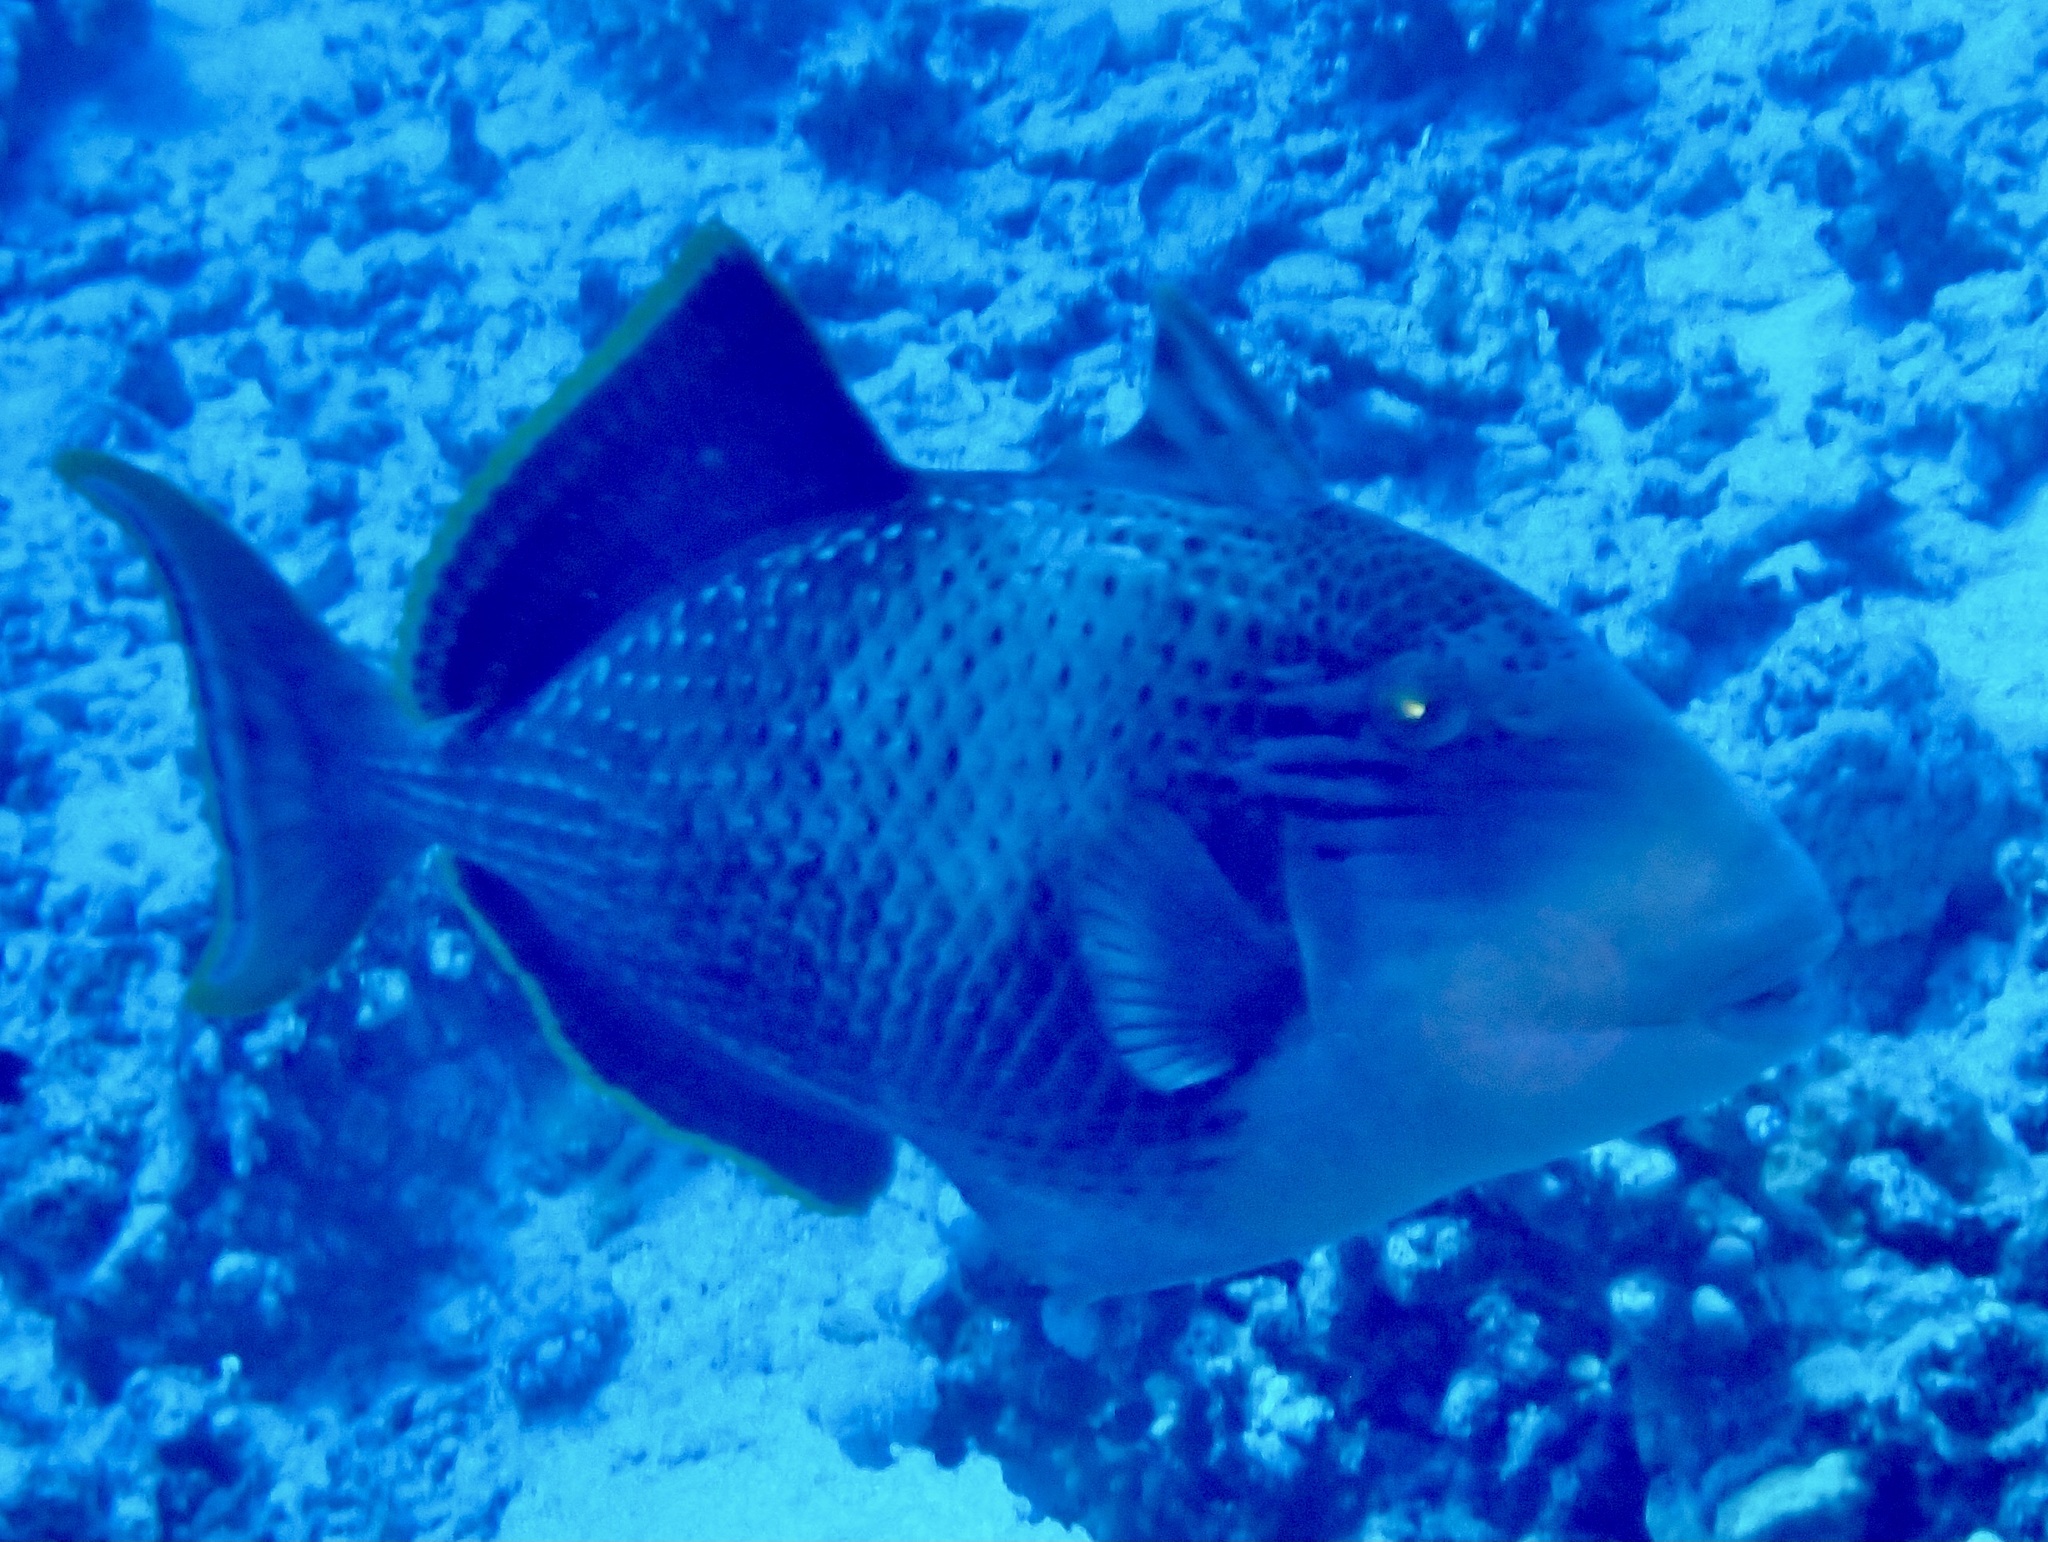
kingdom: Animalia
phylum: Chordata
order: Tetraodontiformes
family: Balistidae
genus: Pseudobalistes
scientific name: Pseudobalistes flavimarginatus
